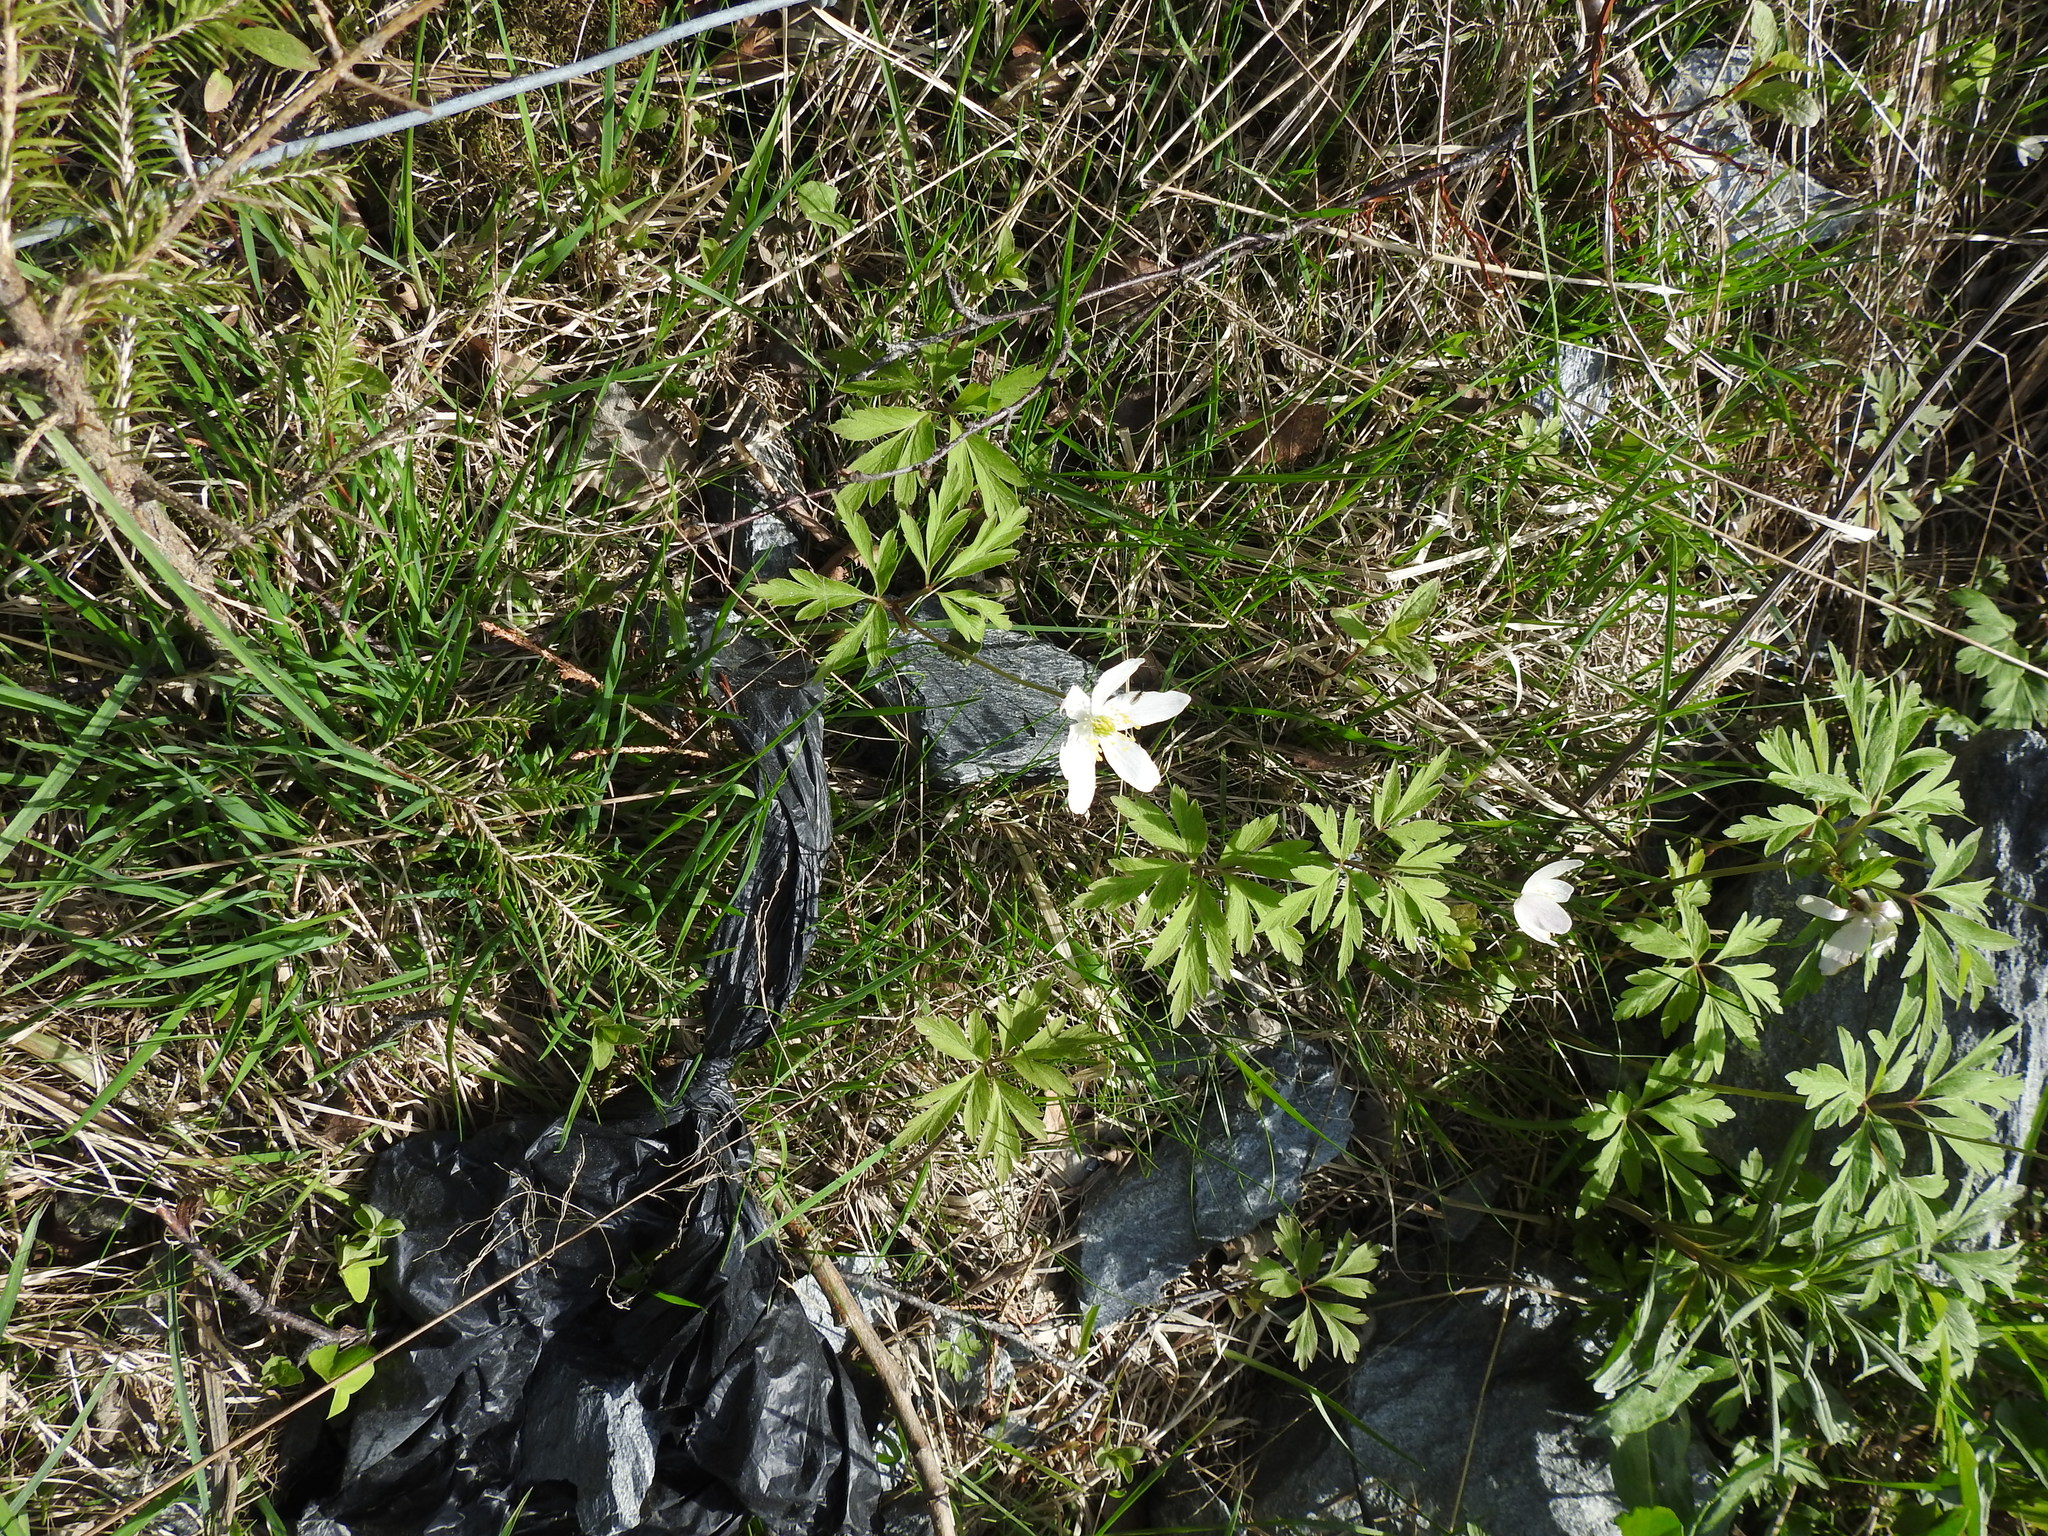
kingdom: Plantae
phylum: Tracheophyta
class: Magnoliopsida
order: Ranunculales
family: Ranunculaceae
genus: Anemone
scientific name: Anemone nemorosa
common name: Wood anemone
